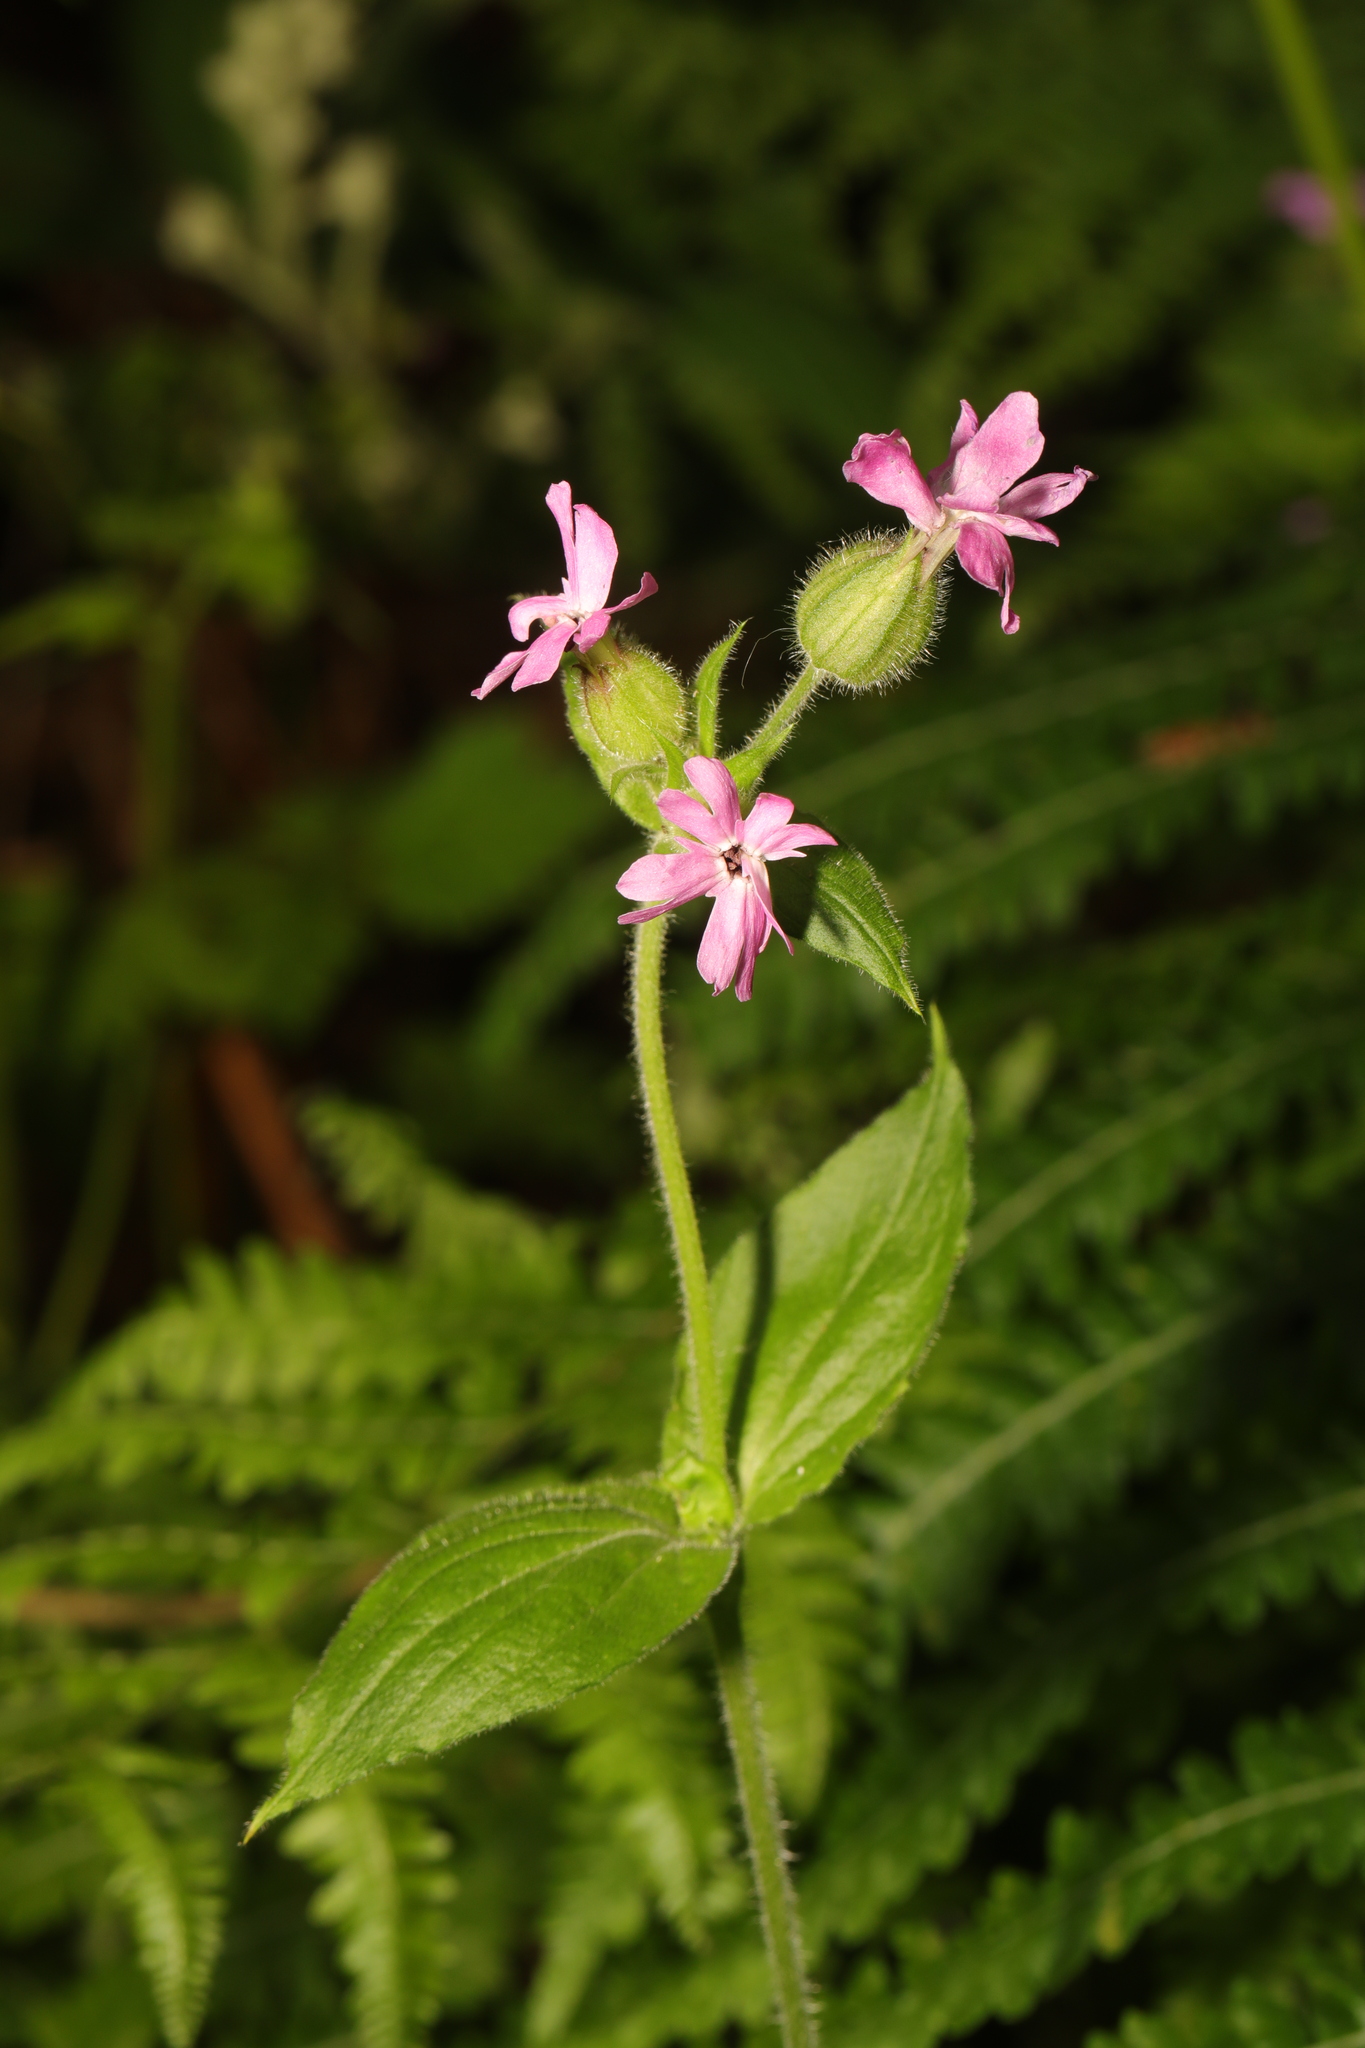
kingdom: Plantae
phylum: Tracheophyta
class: Magnoliopsida
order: Caryophyllales
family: Caryophyllaceae
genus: Silene
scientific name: Silene dioica
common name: Red campion
